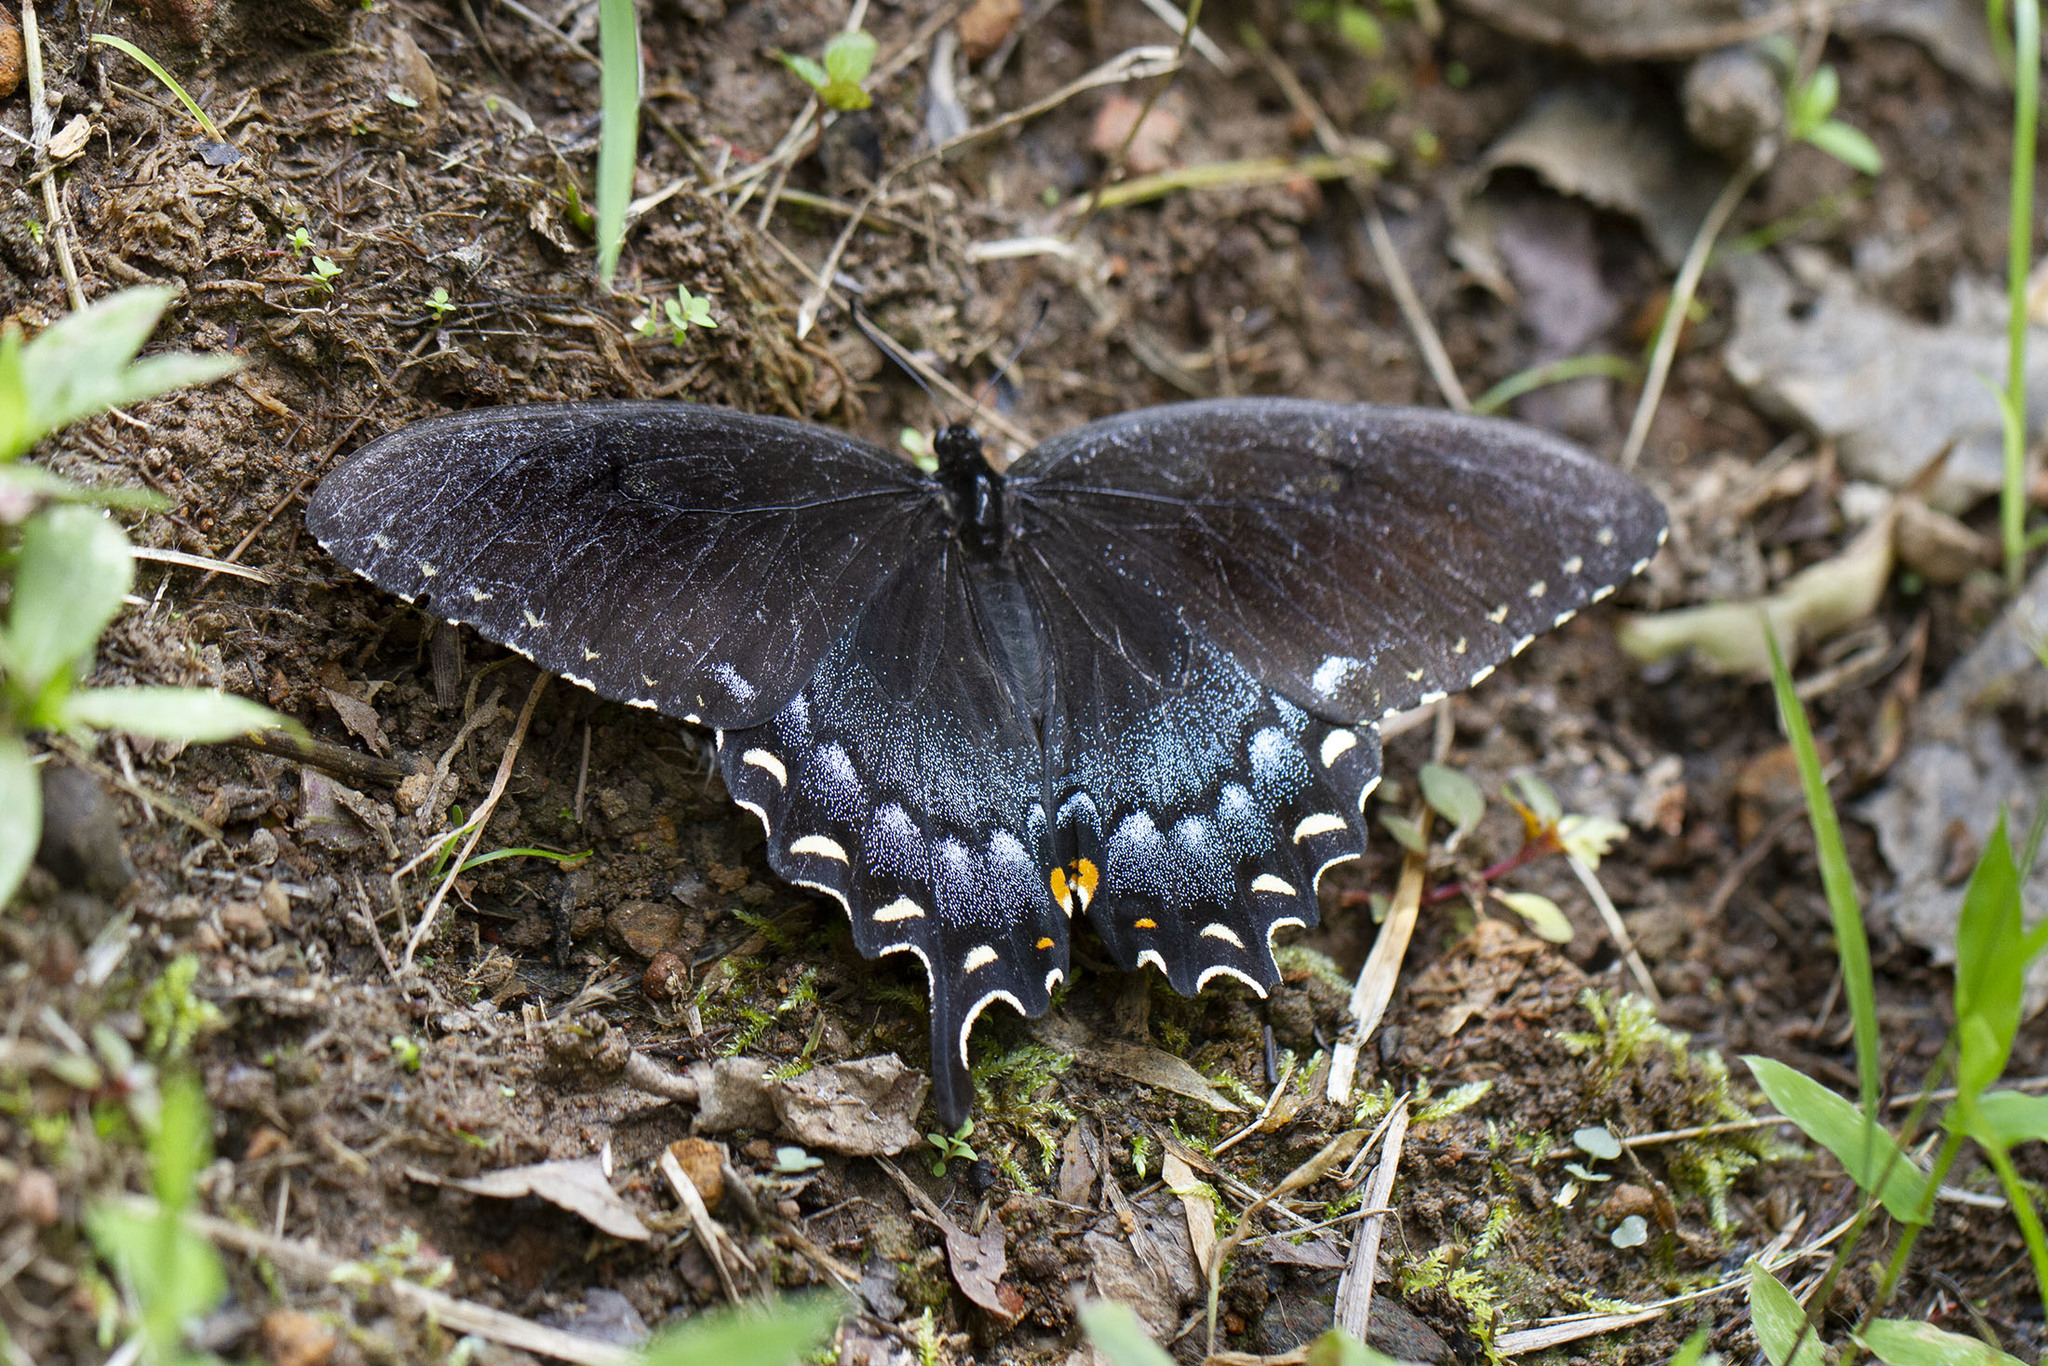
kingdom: Animalia
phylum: Arthropoda
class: Insecta
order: Lepidoptera
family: Papilionidae
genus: Papilio
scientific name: Papilio glaucus
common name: Tiger swallowtail
